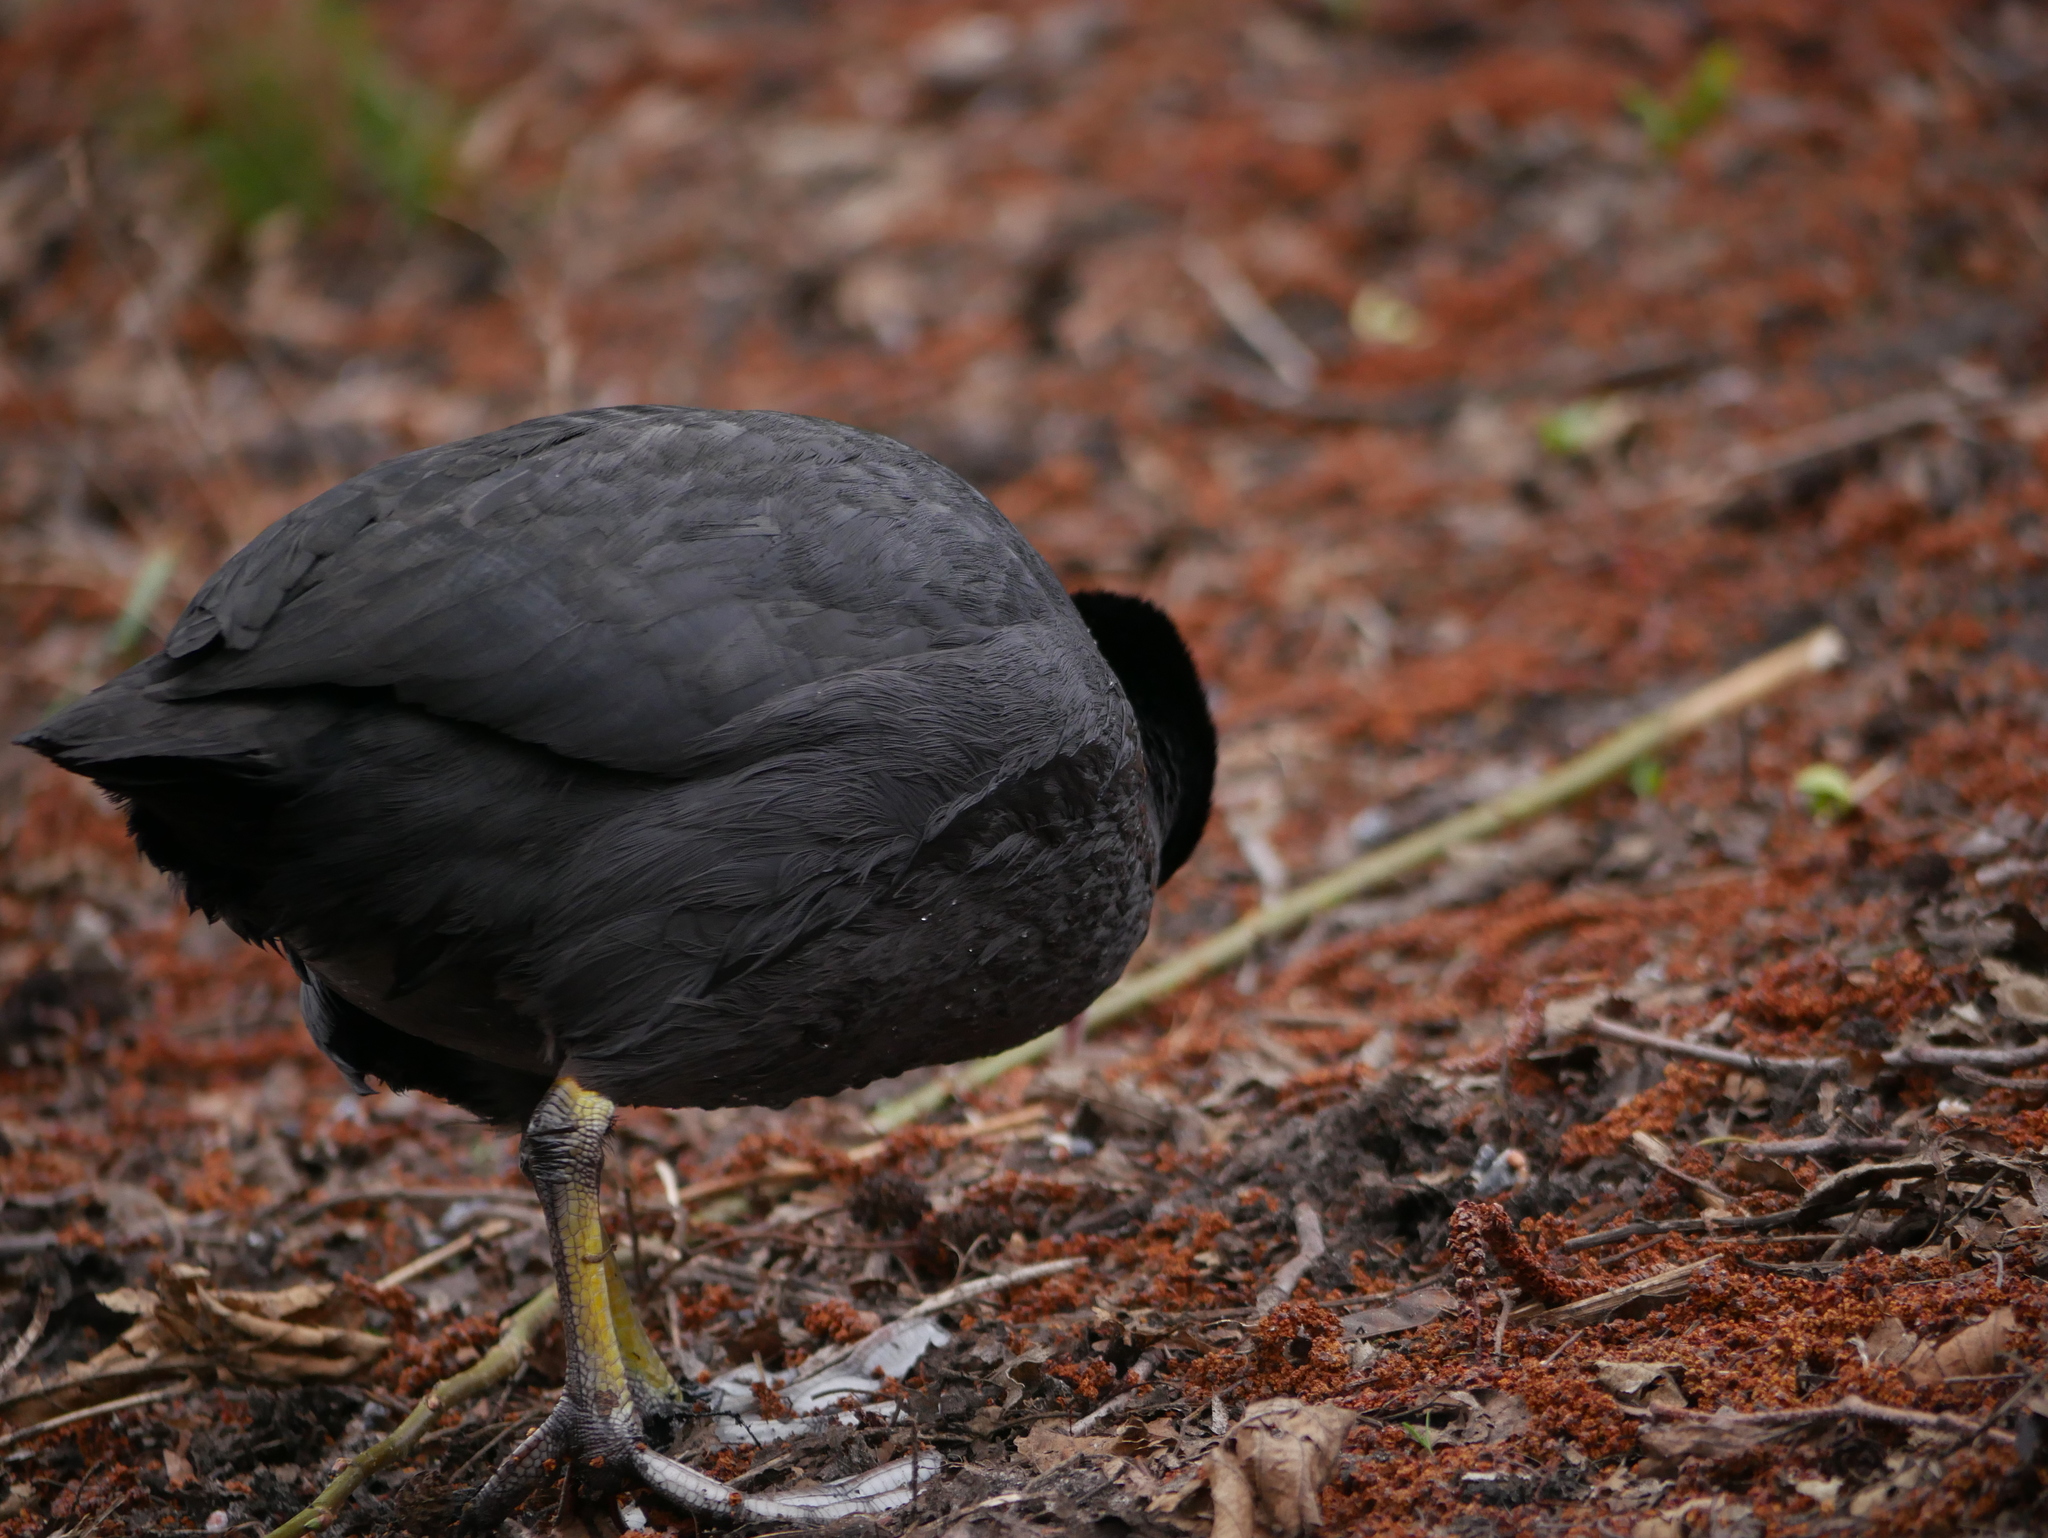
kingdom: Animalia
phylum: Chordata
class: Aves
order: Gruiformes
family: Rallidae
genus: Fulica
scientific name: Fulica atra
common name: Eurasian coot
